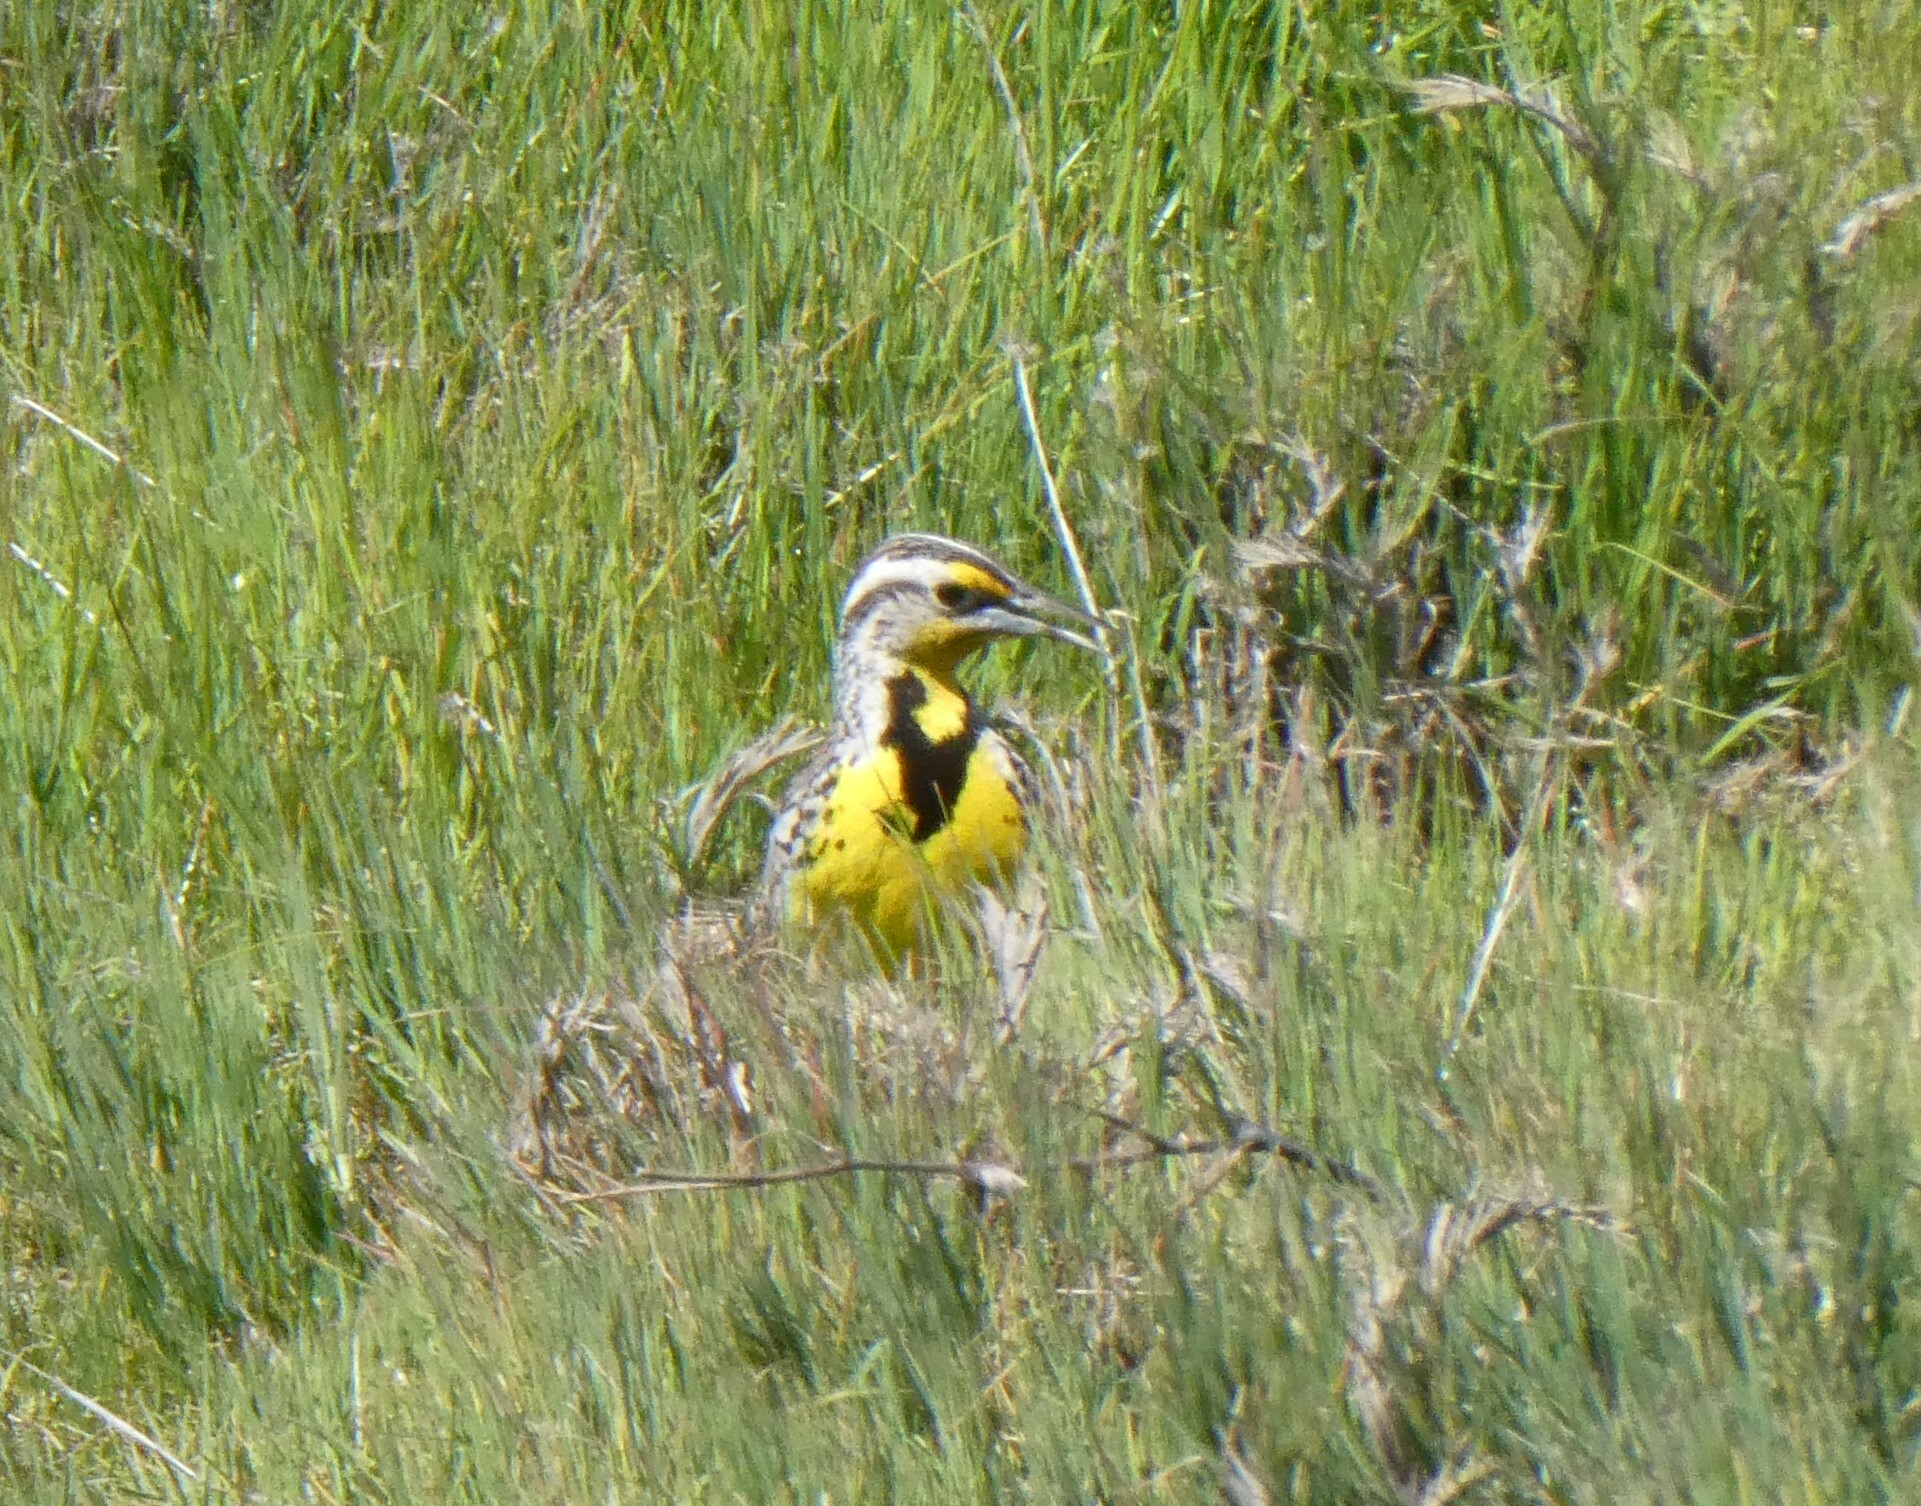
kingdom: Animalia
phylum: Chordata
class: Aves
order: Passeriformes
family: Icteridae
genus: Sturnella
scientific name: Sturnella neglecta
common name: Western meadowlark
